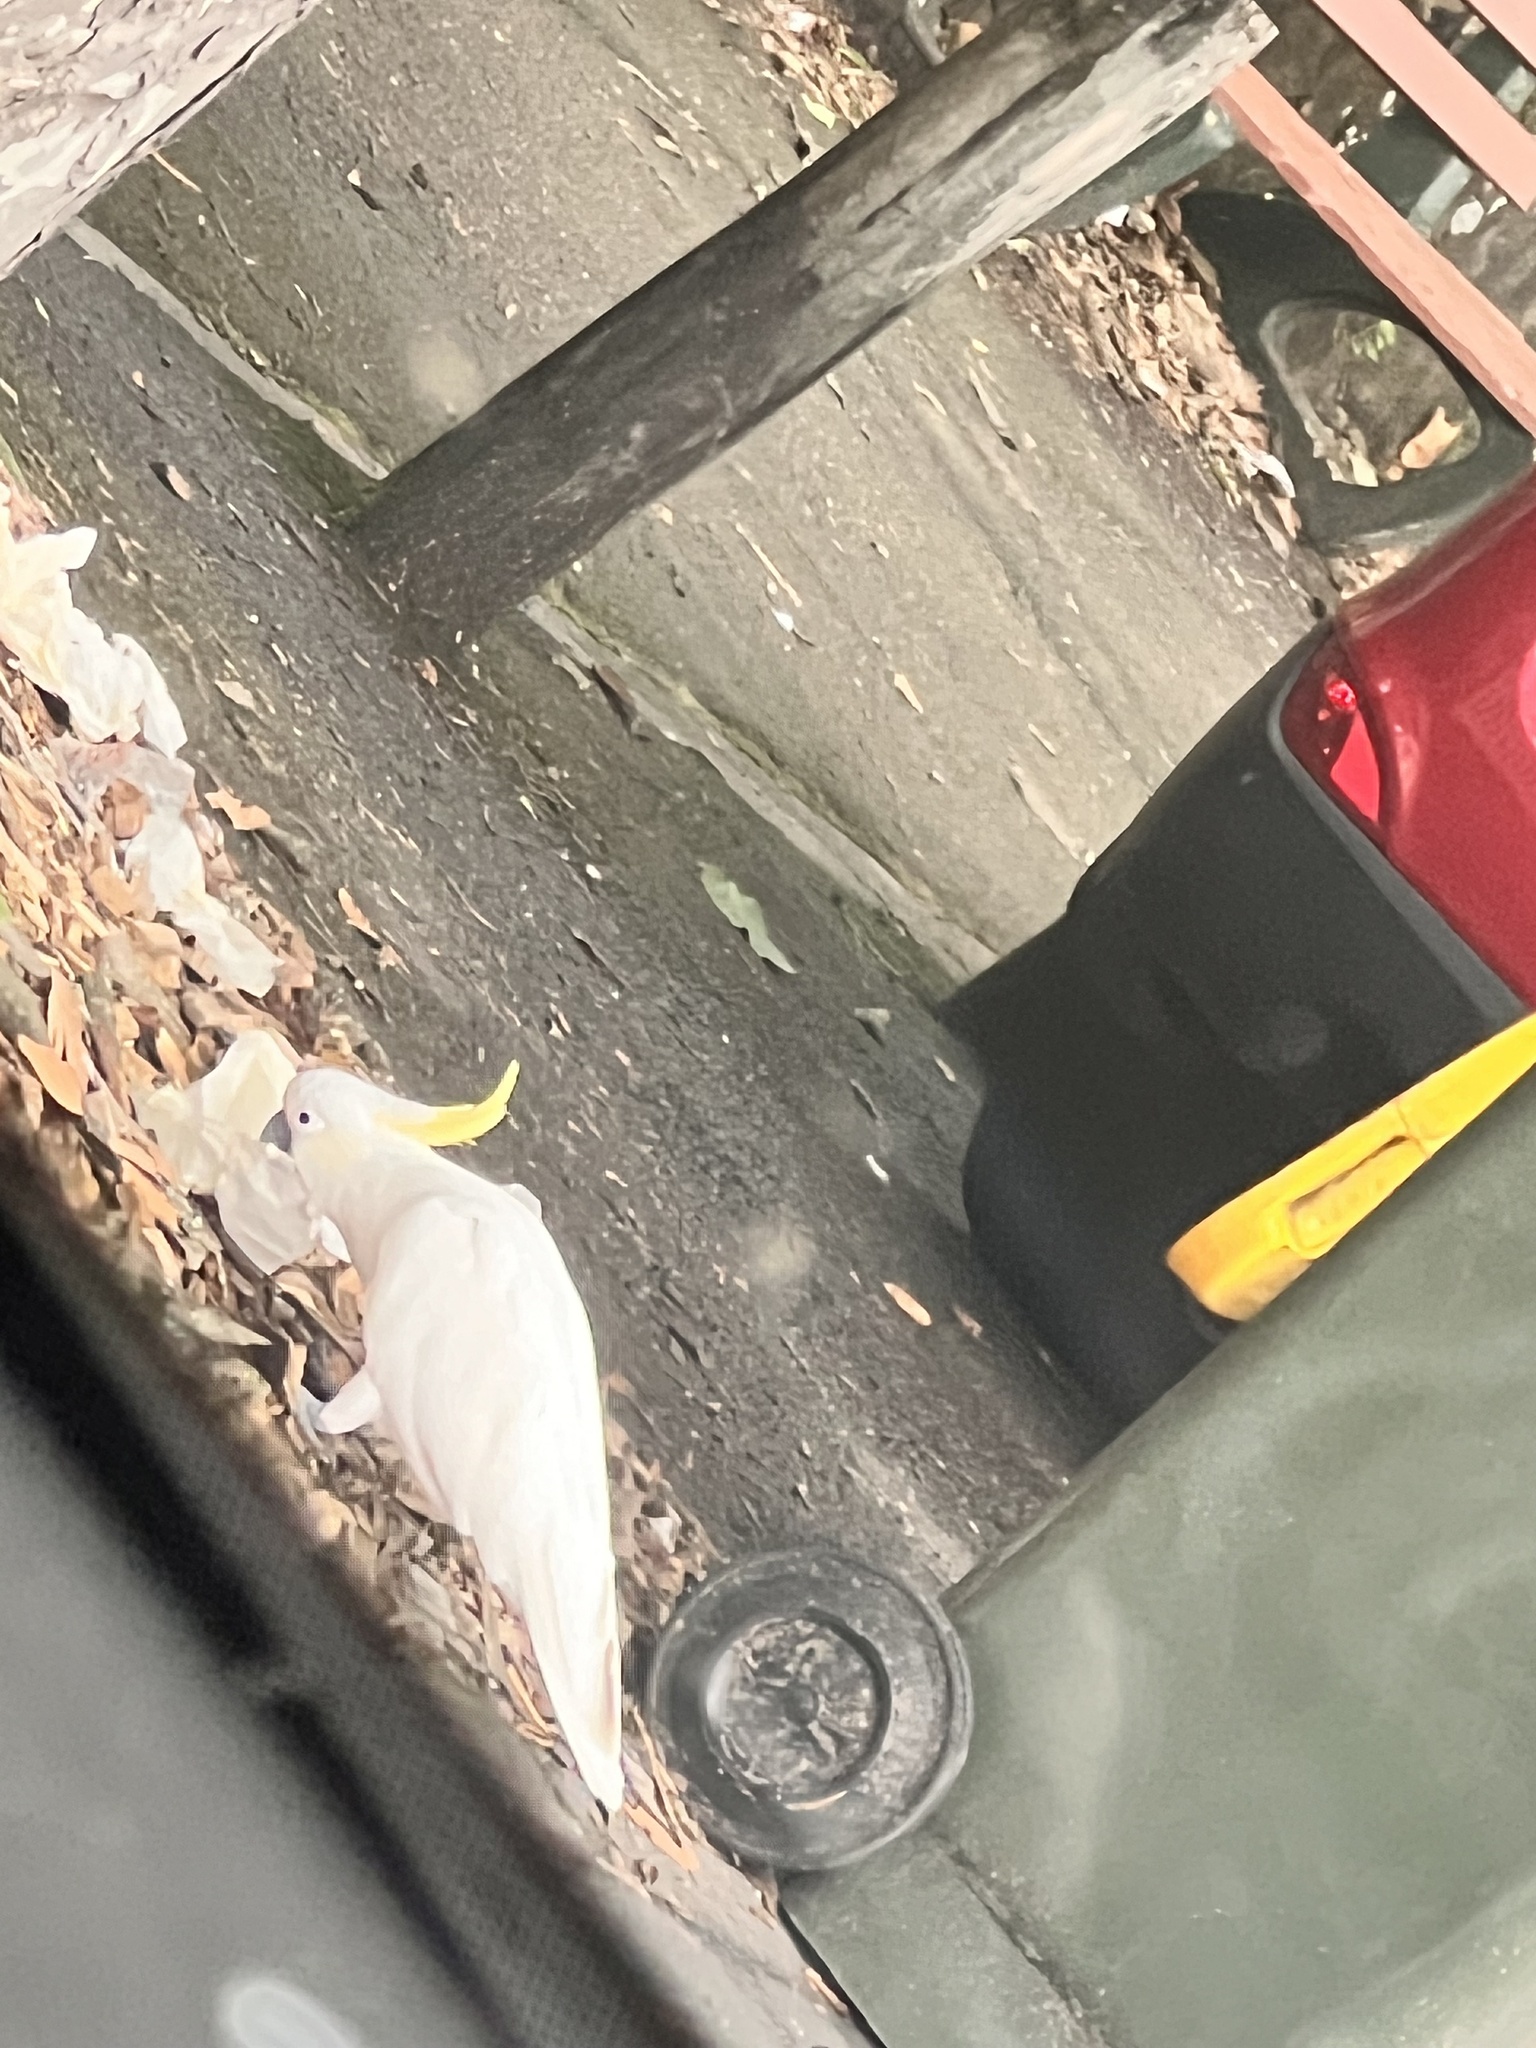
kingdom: Animalia
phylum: Chordata
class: Aves
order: Psittaciformes
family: Psittacidae
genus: Cacatua
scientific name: Cacatua galerita
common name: Sulphur-crested cockatoo
